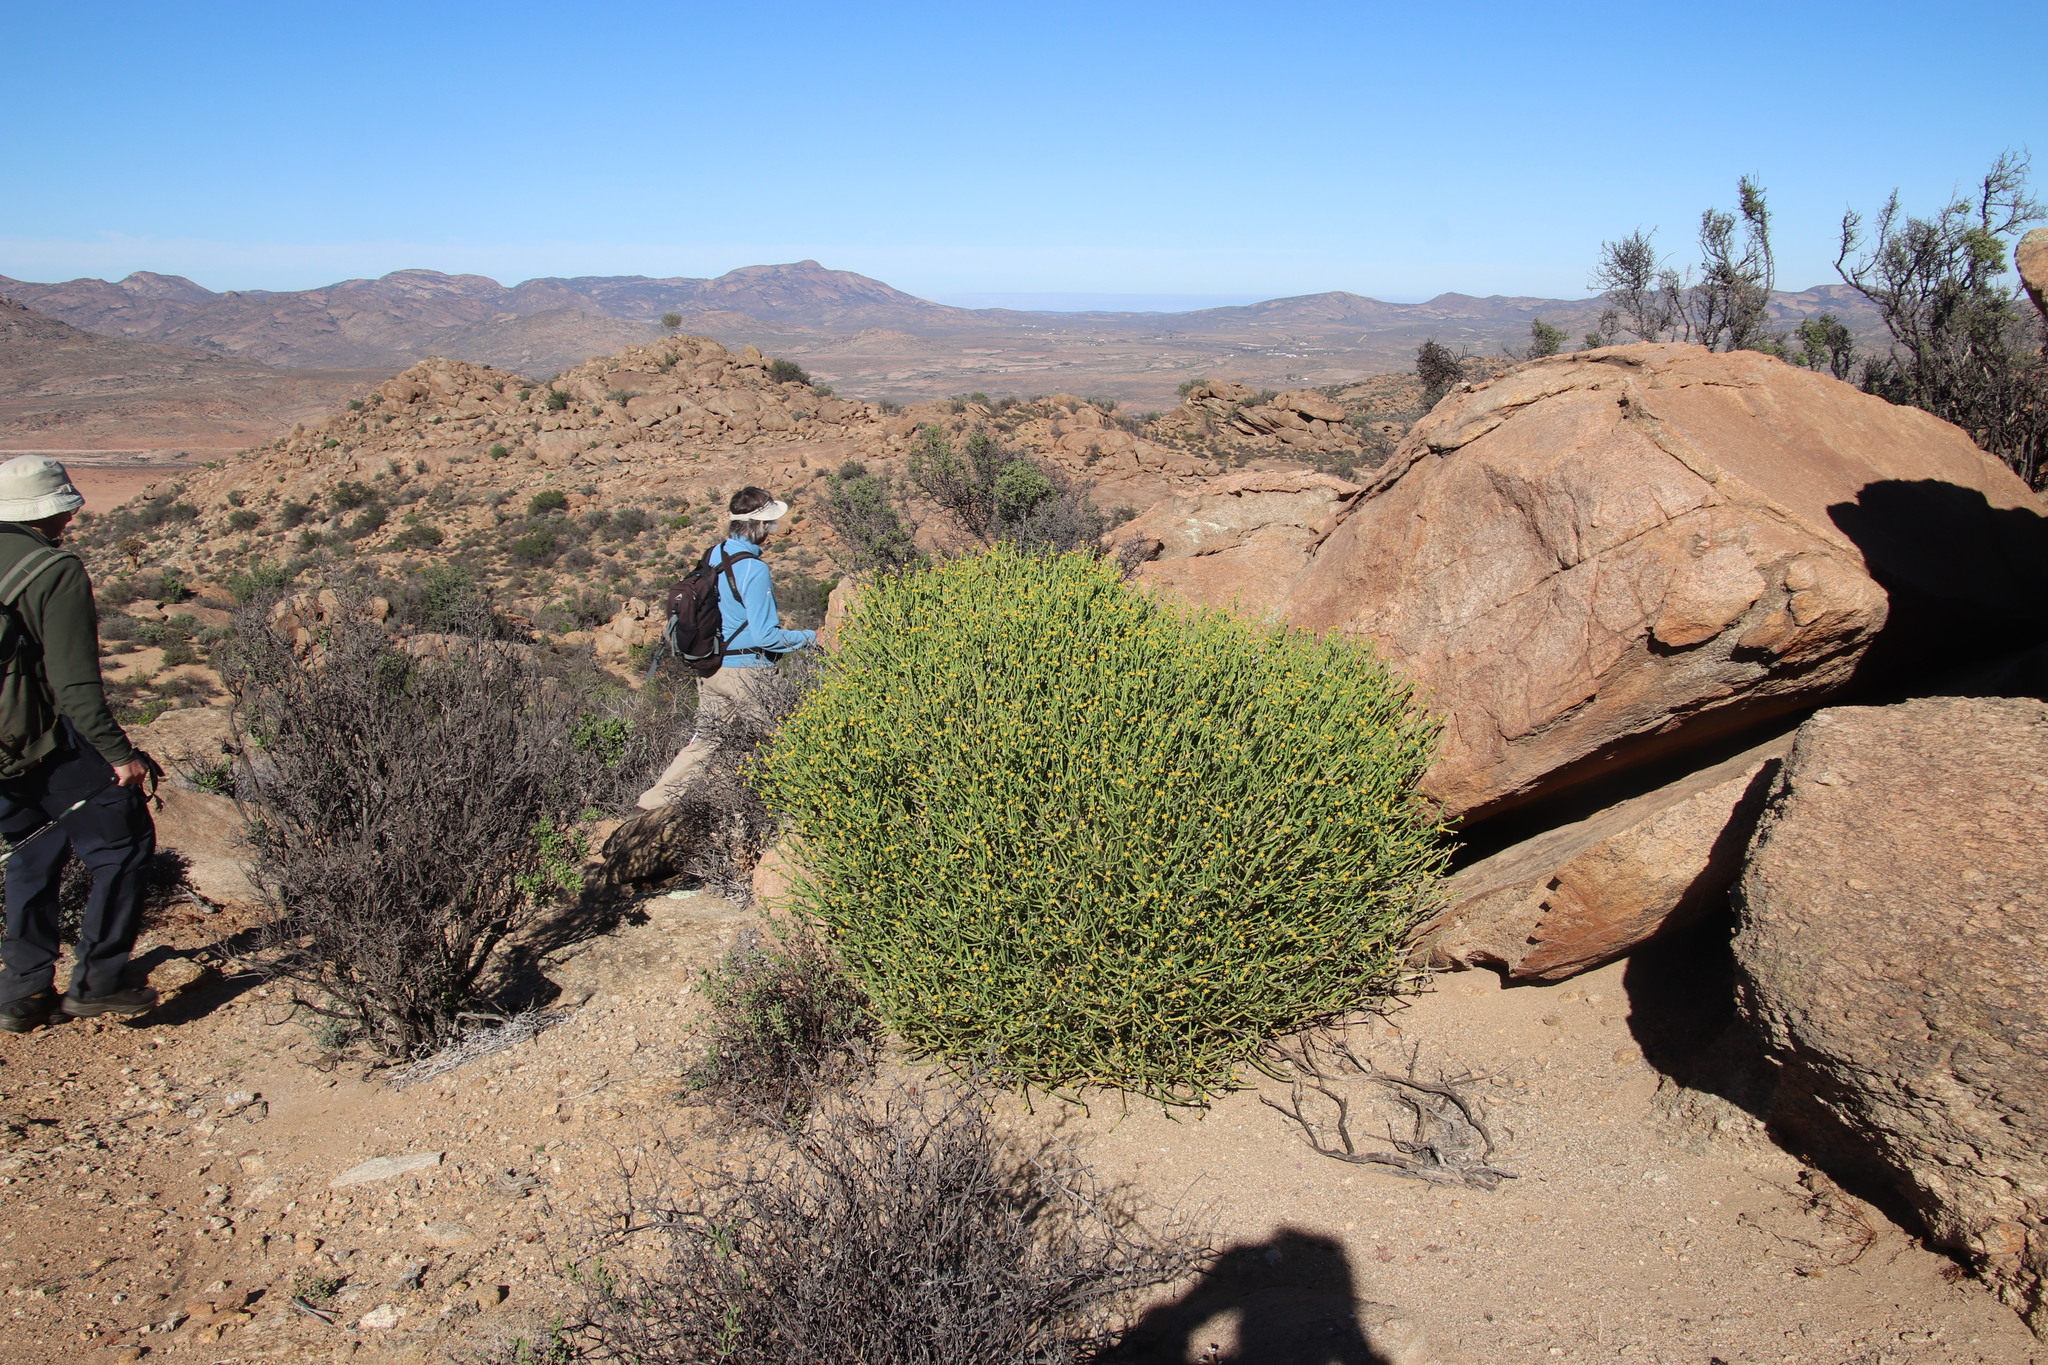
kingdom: Plantae
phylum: Tracheophyta
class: Magnoliopsida
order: Malpighiales
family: Euphorbiaceae
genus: Euphorbia
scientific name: Euphorbia mauritanica
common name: Jackal's-food
